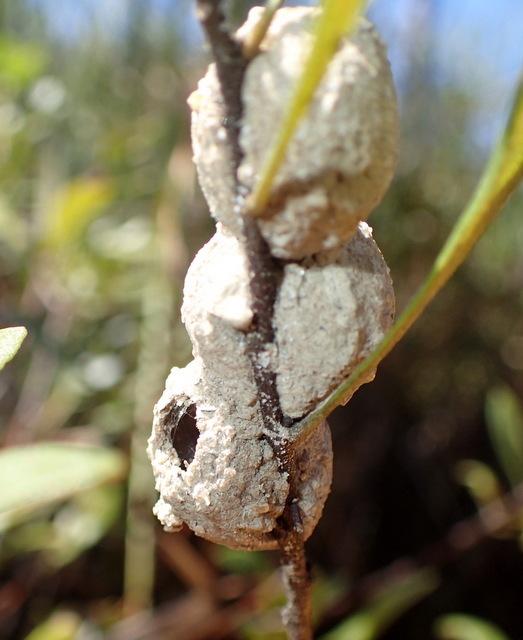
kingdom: Animalia
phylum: Arthropoda
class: Insecta
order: Hymenoptera
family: Vespidae
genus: Eumenes
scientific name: Eumenes
